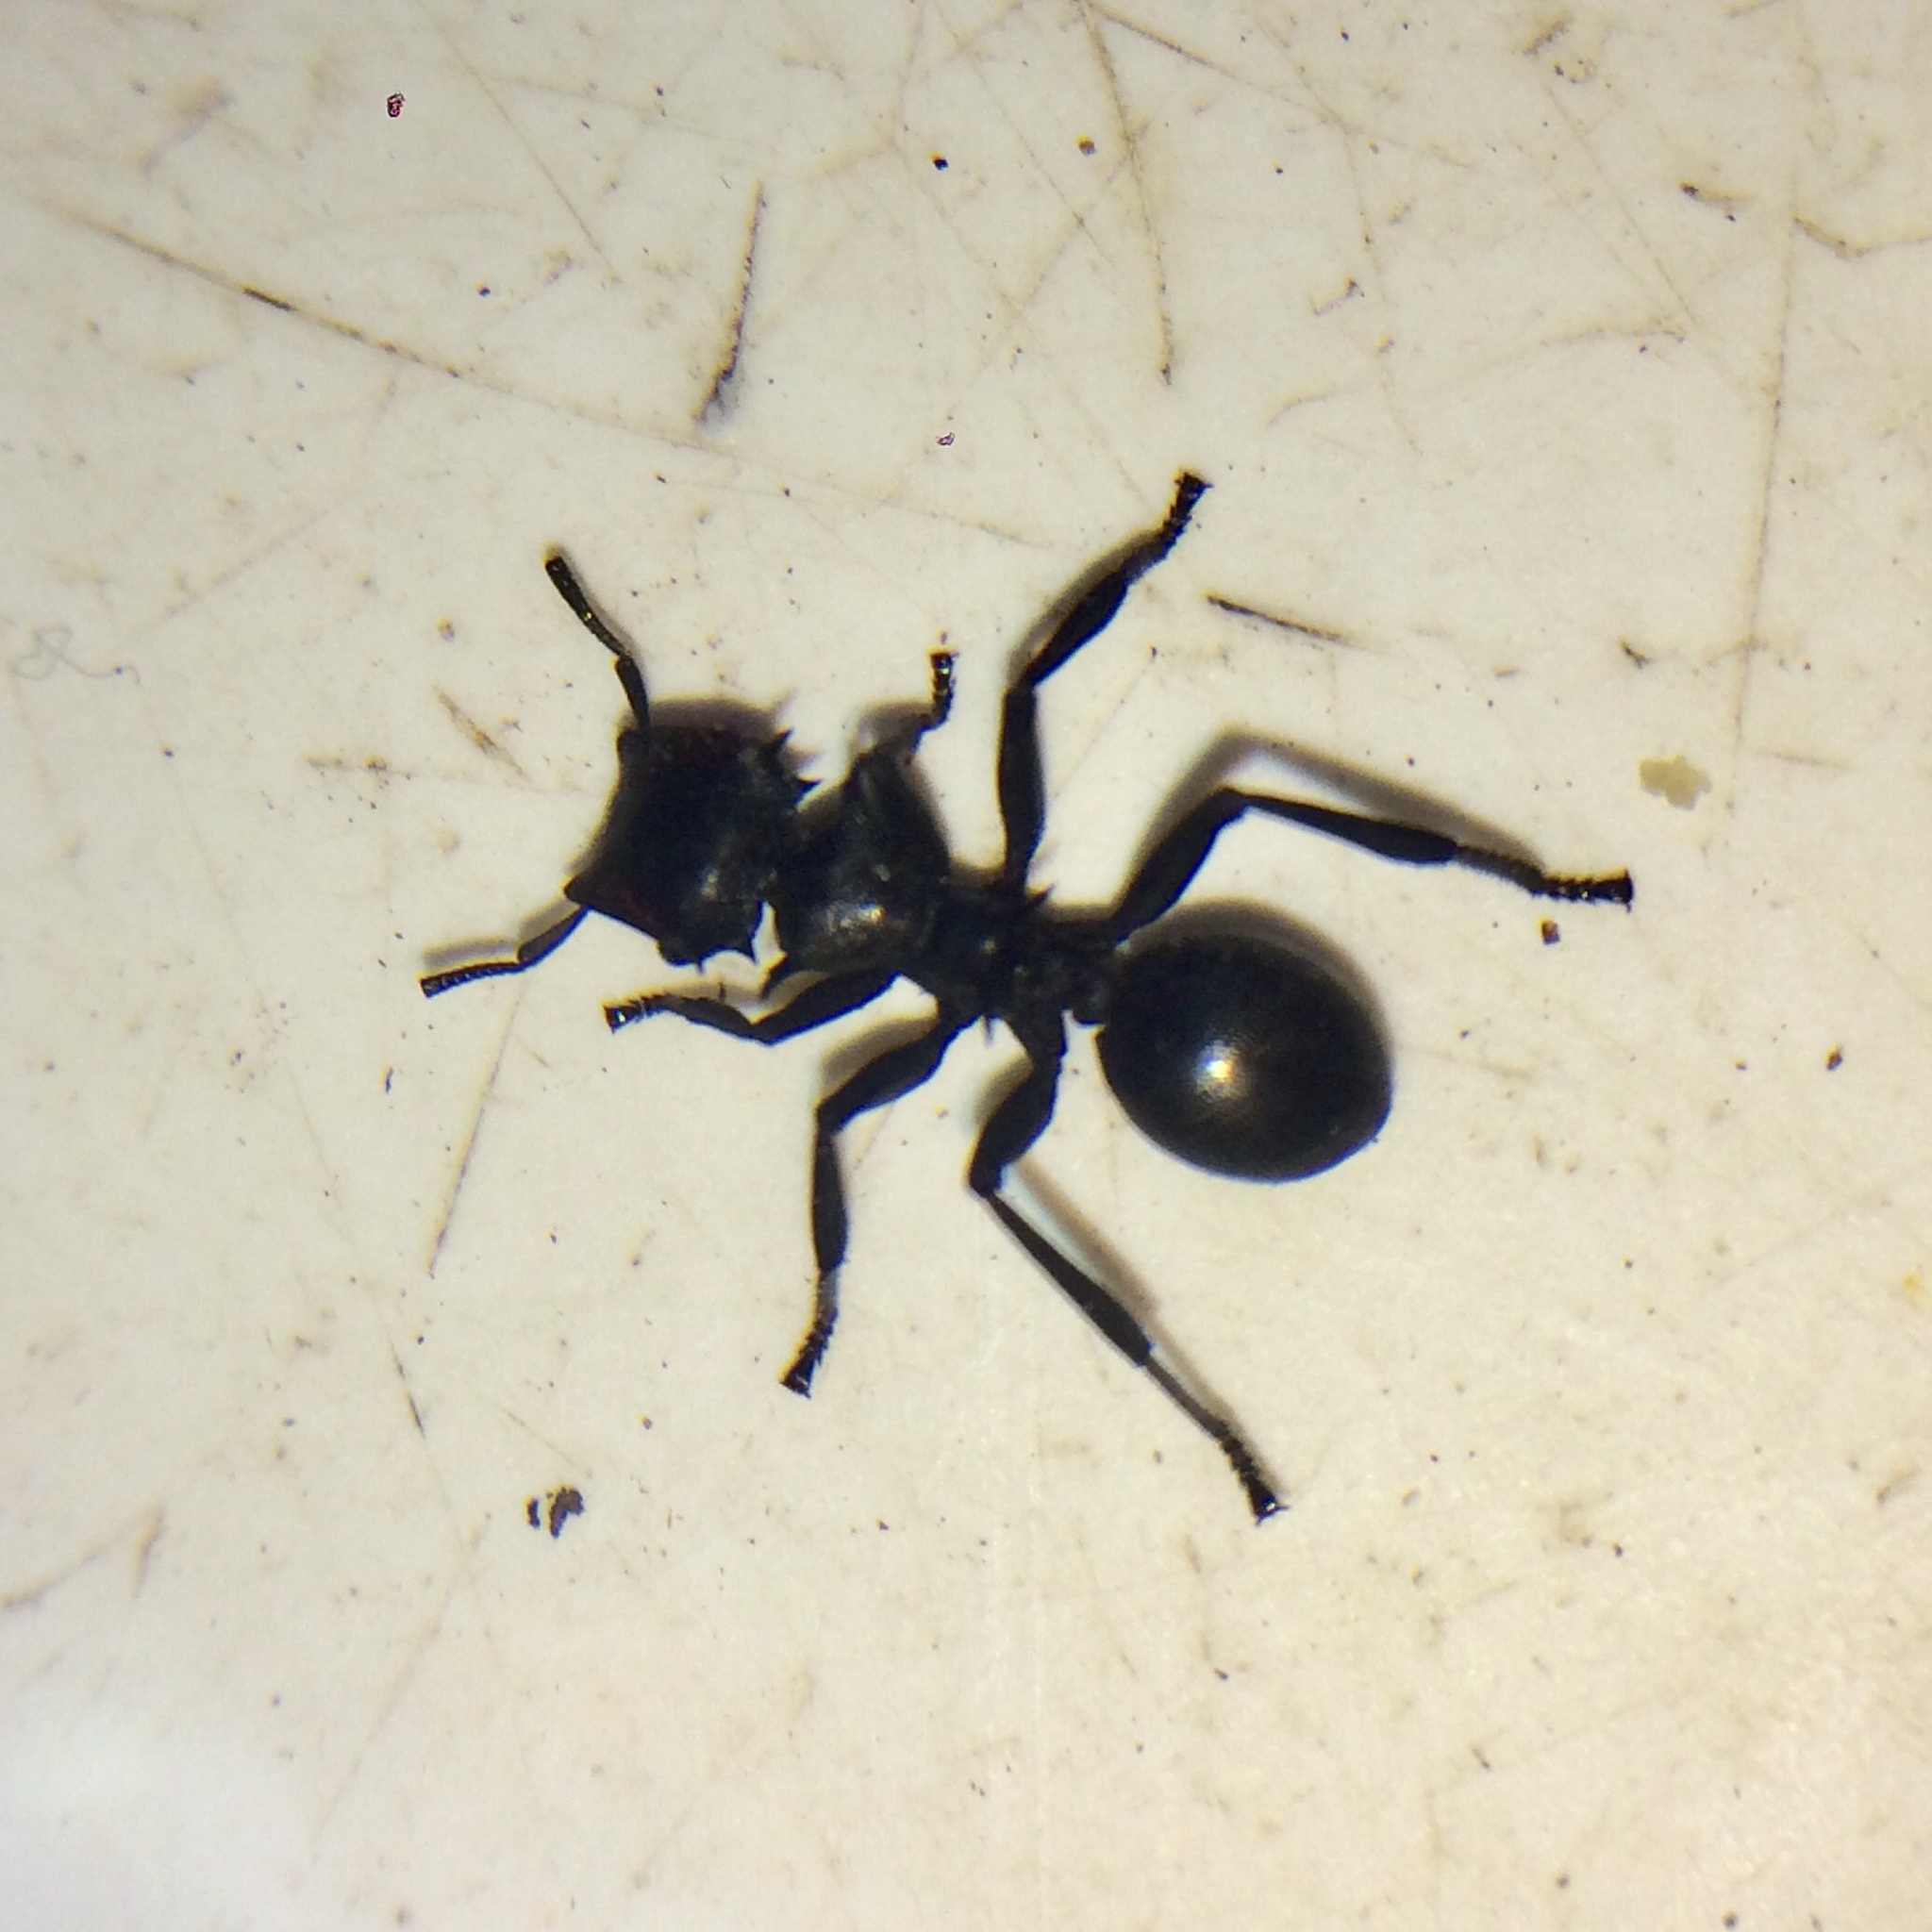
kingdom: Animalia
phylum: Arthropoda
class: Insecta
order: Hymenoptera
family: Formicidae
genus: Cephalotes
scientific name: Cephalotes atratus
